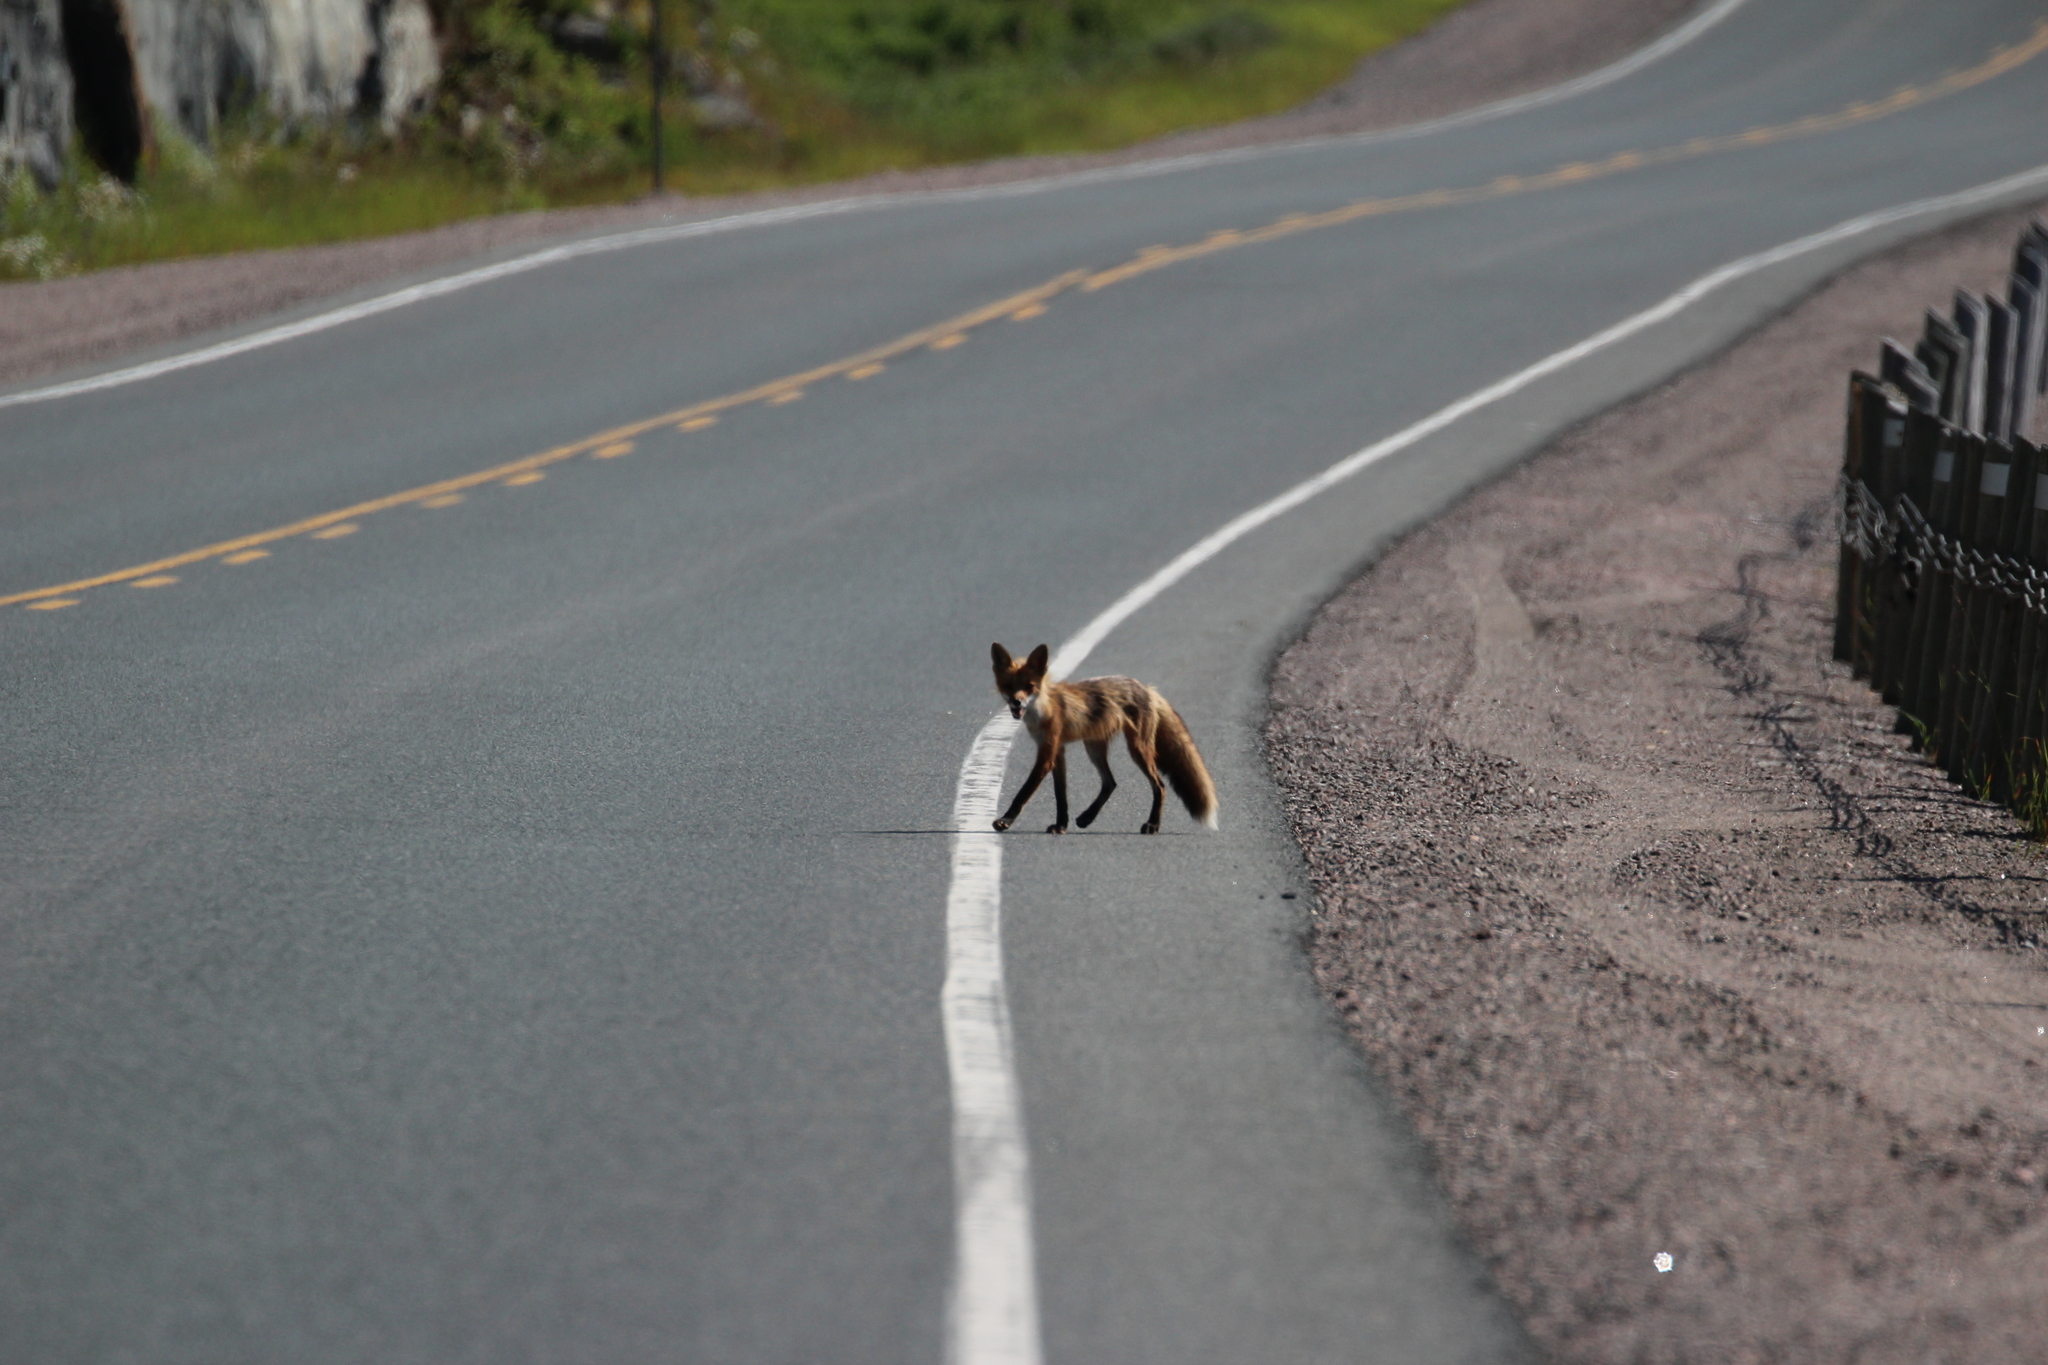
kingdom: Animalia
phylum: Chordata
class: Mammalia
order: Carnivora
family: Canidae
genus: Vulpes
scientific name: Vulpes vulpes
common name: Red fox
